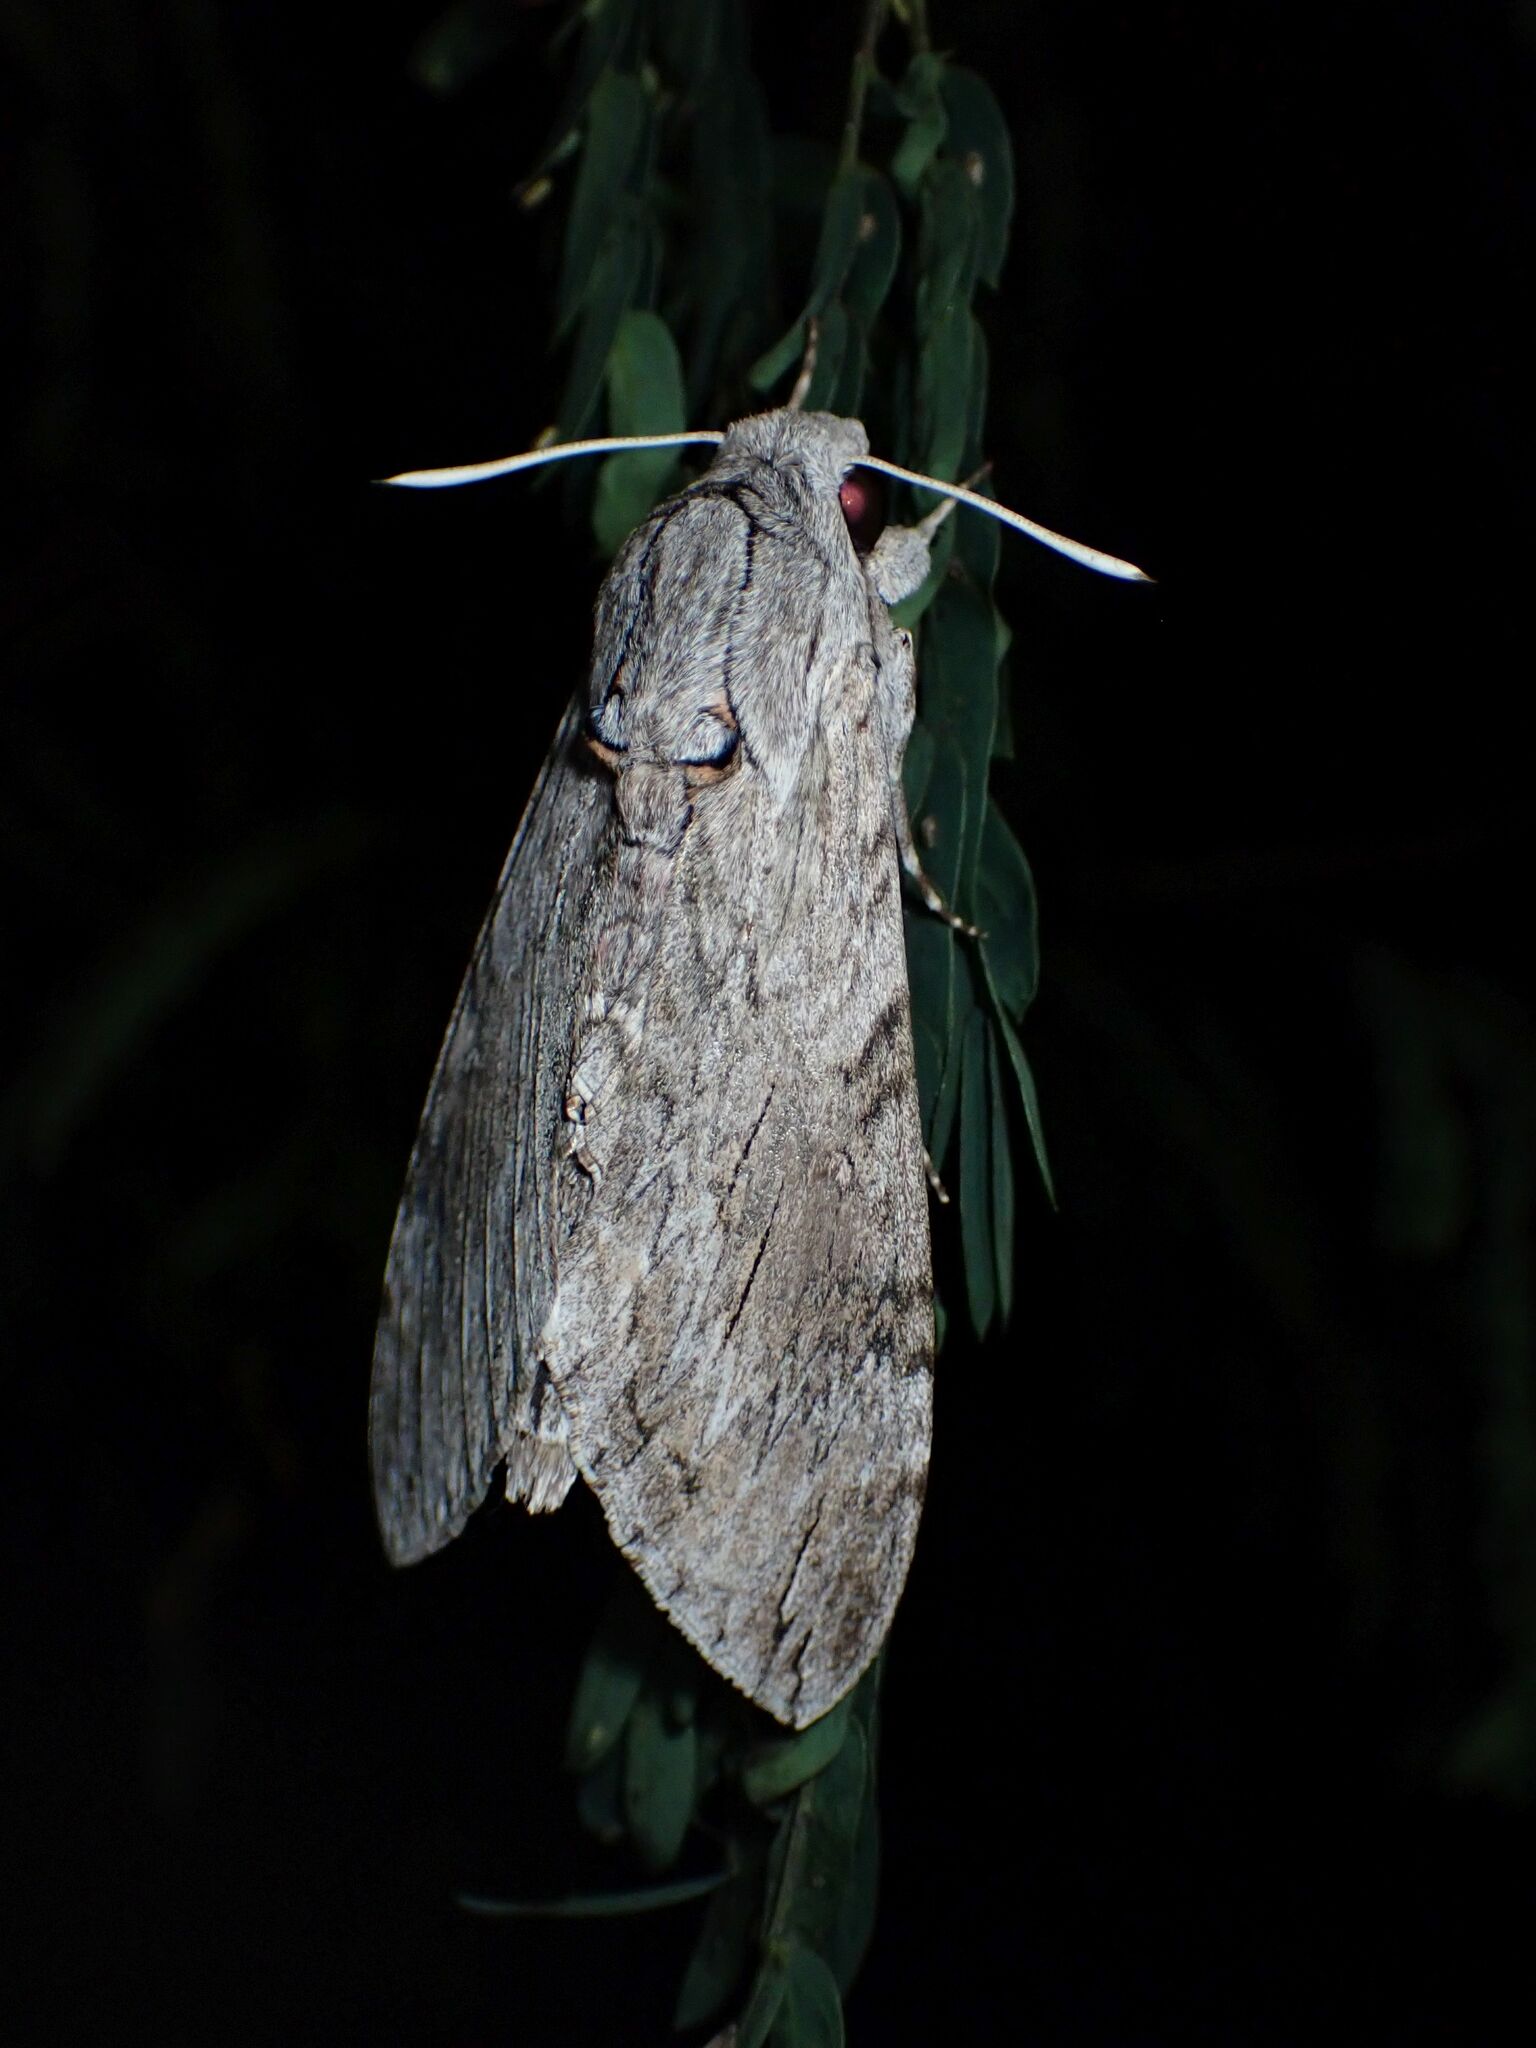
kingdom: Animalia
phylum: Arthropoda
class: Insecta
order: Lepidoptera
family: Sphingidae
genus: Agrius
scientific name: Agrius convolvuli
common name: Convolvulus hawkmoth
